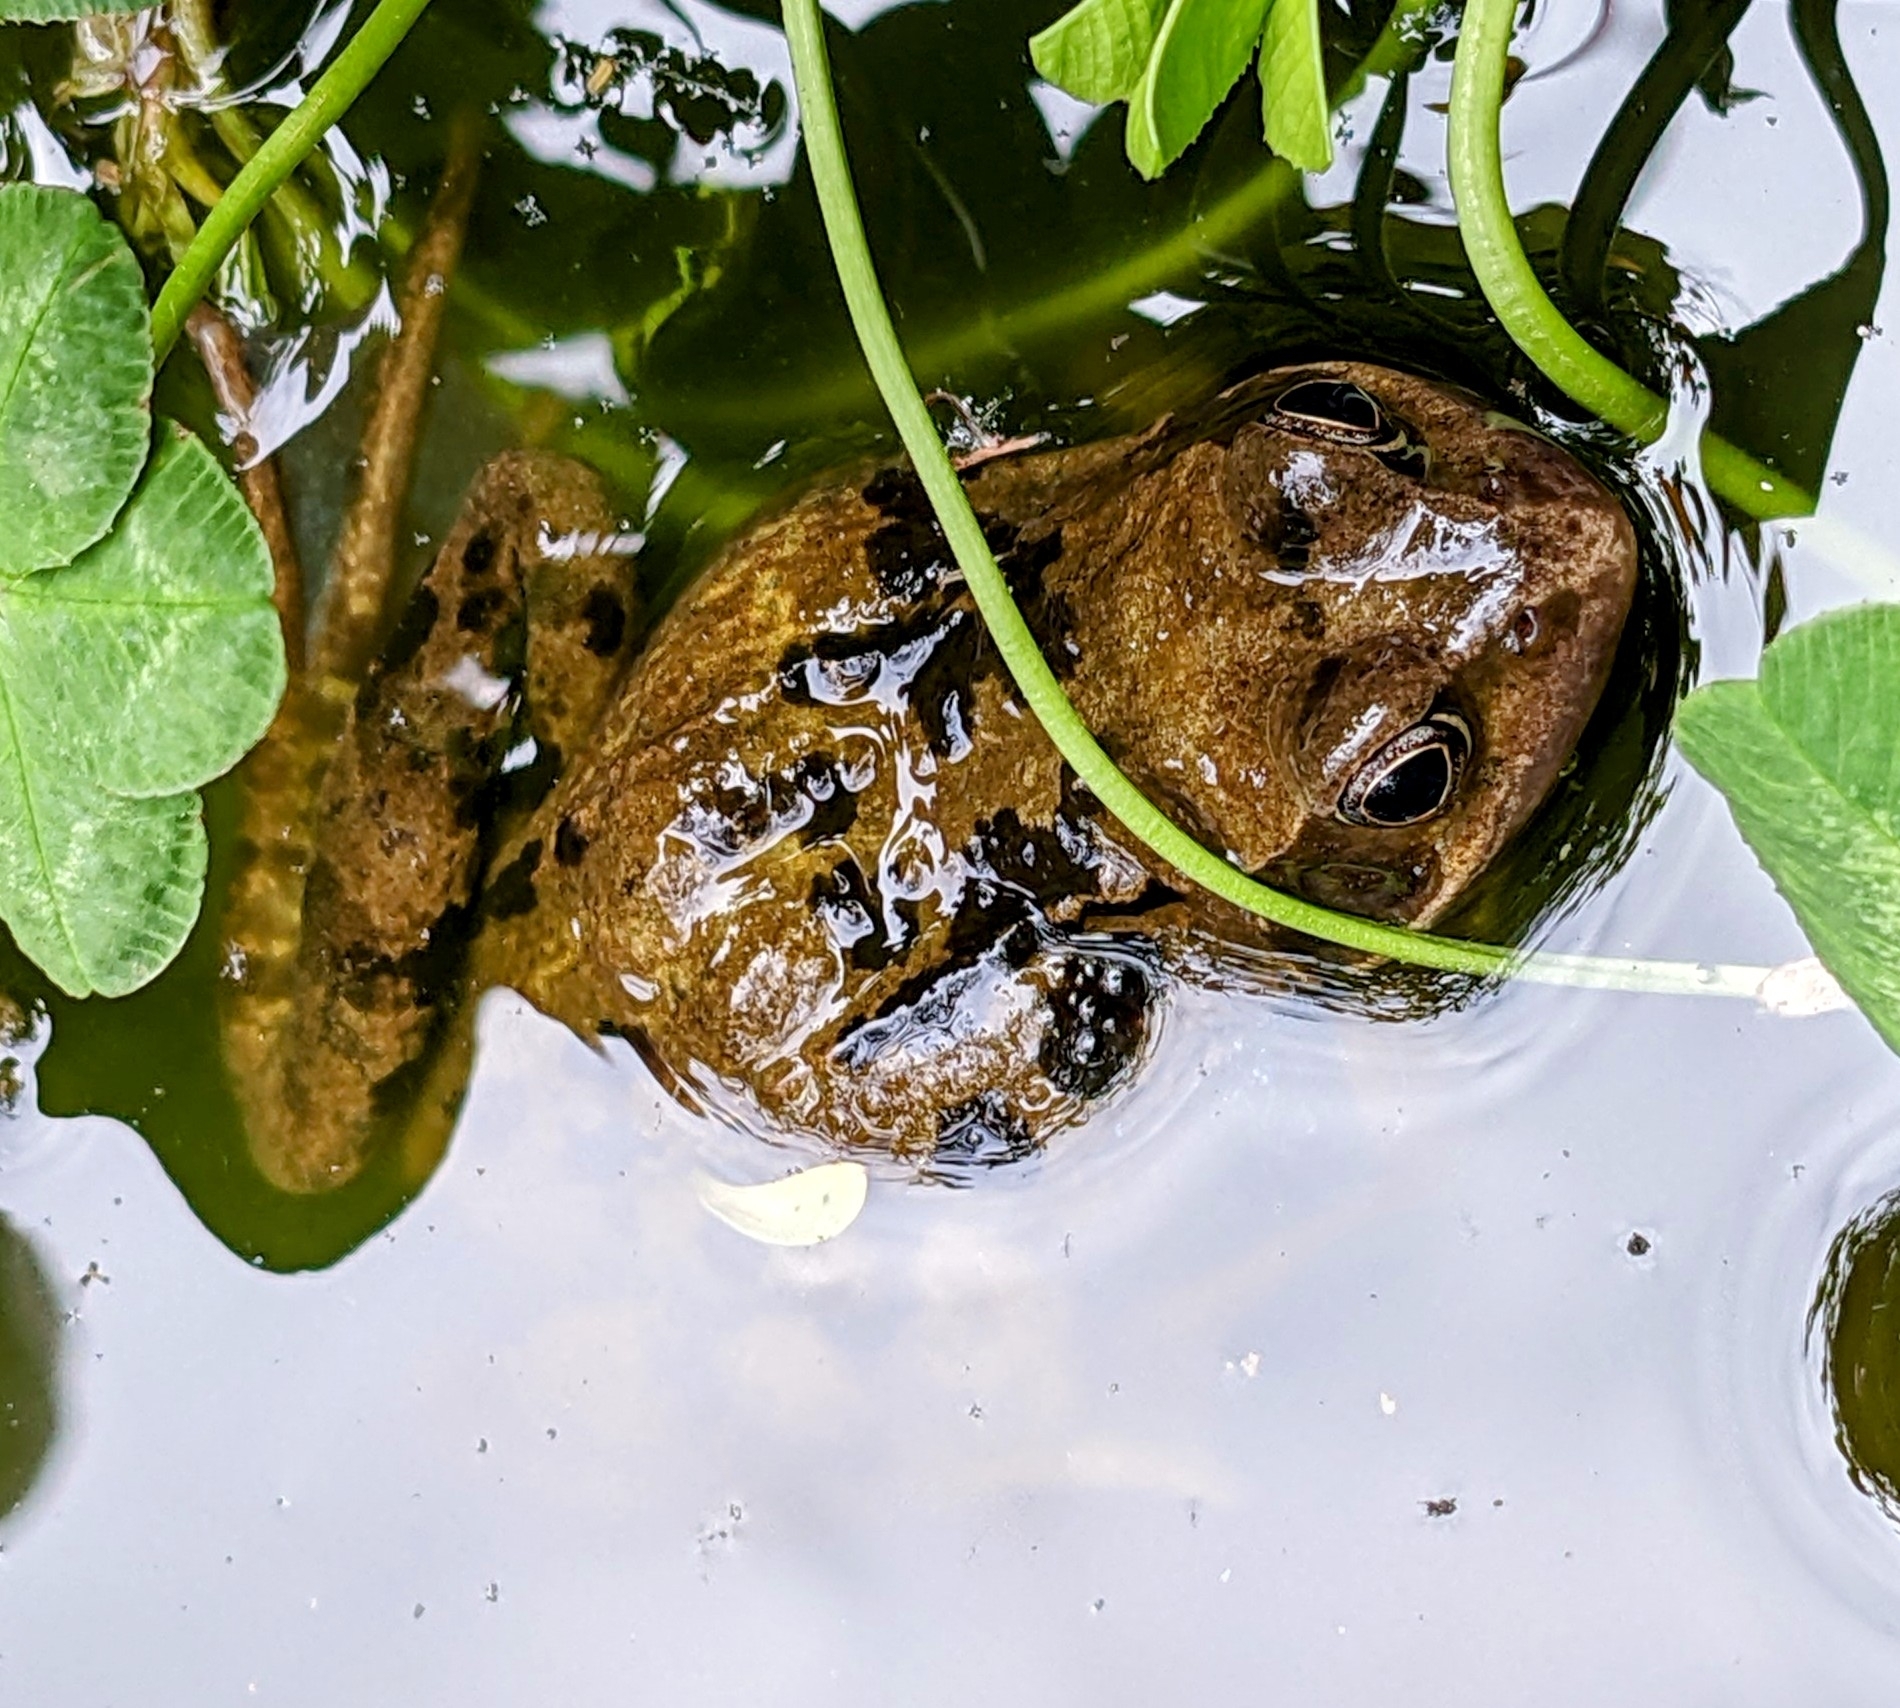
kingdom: Animalia
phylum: Chordata
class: Amphibia
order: Anura
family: Ranidae
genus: Rana
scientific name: Rana temporaria
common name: Common frog
